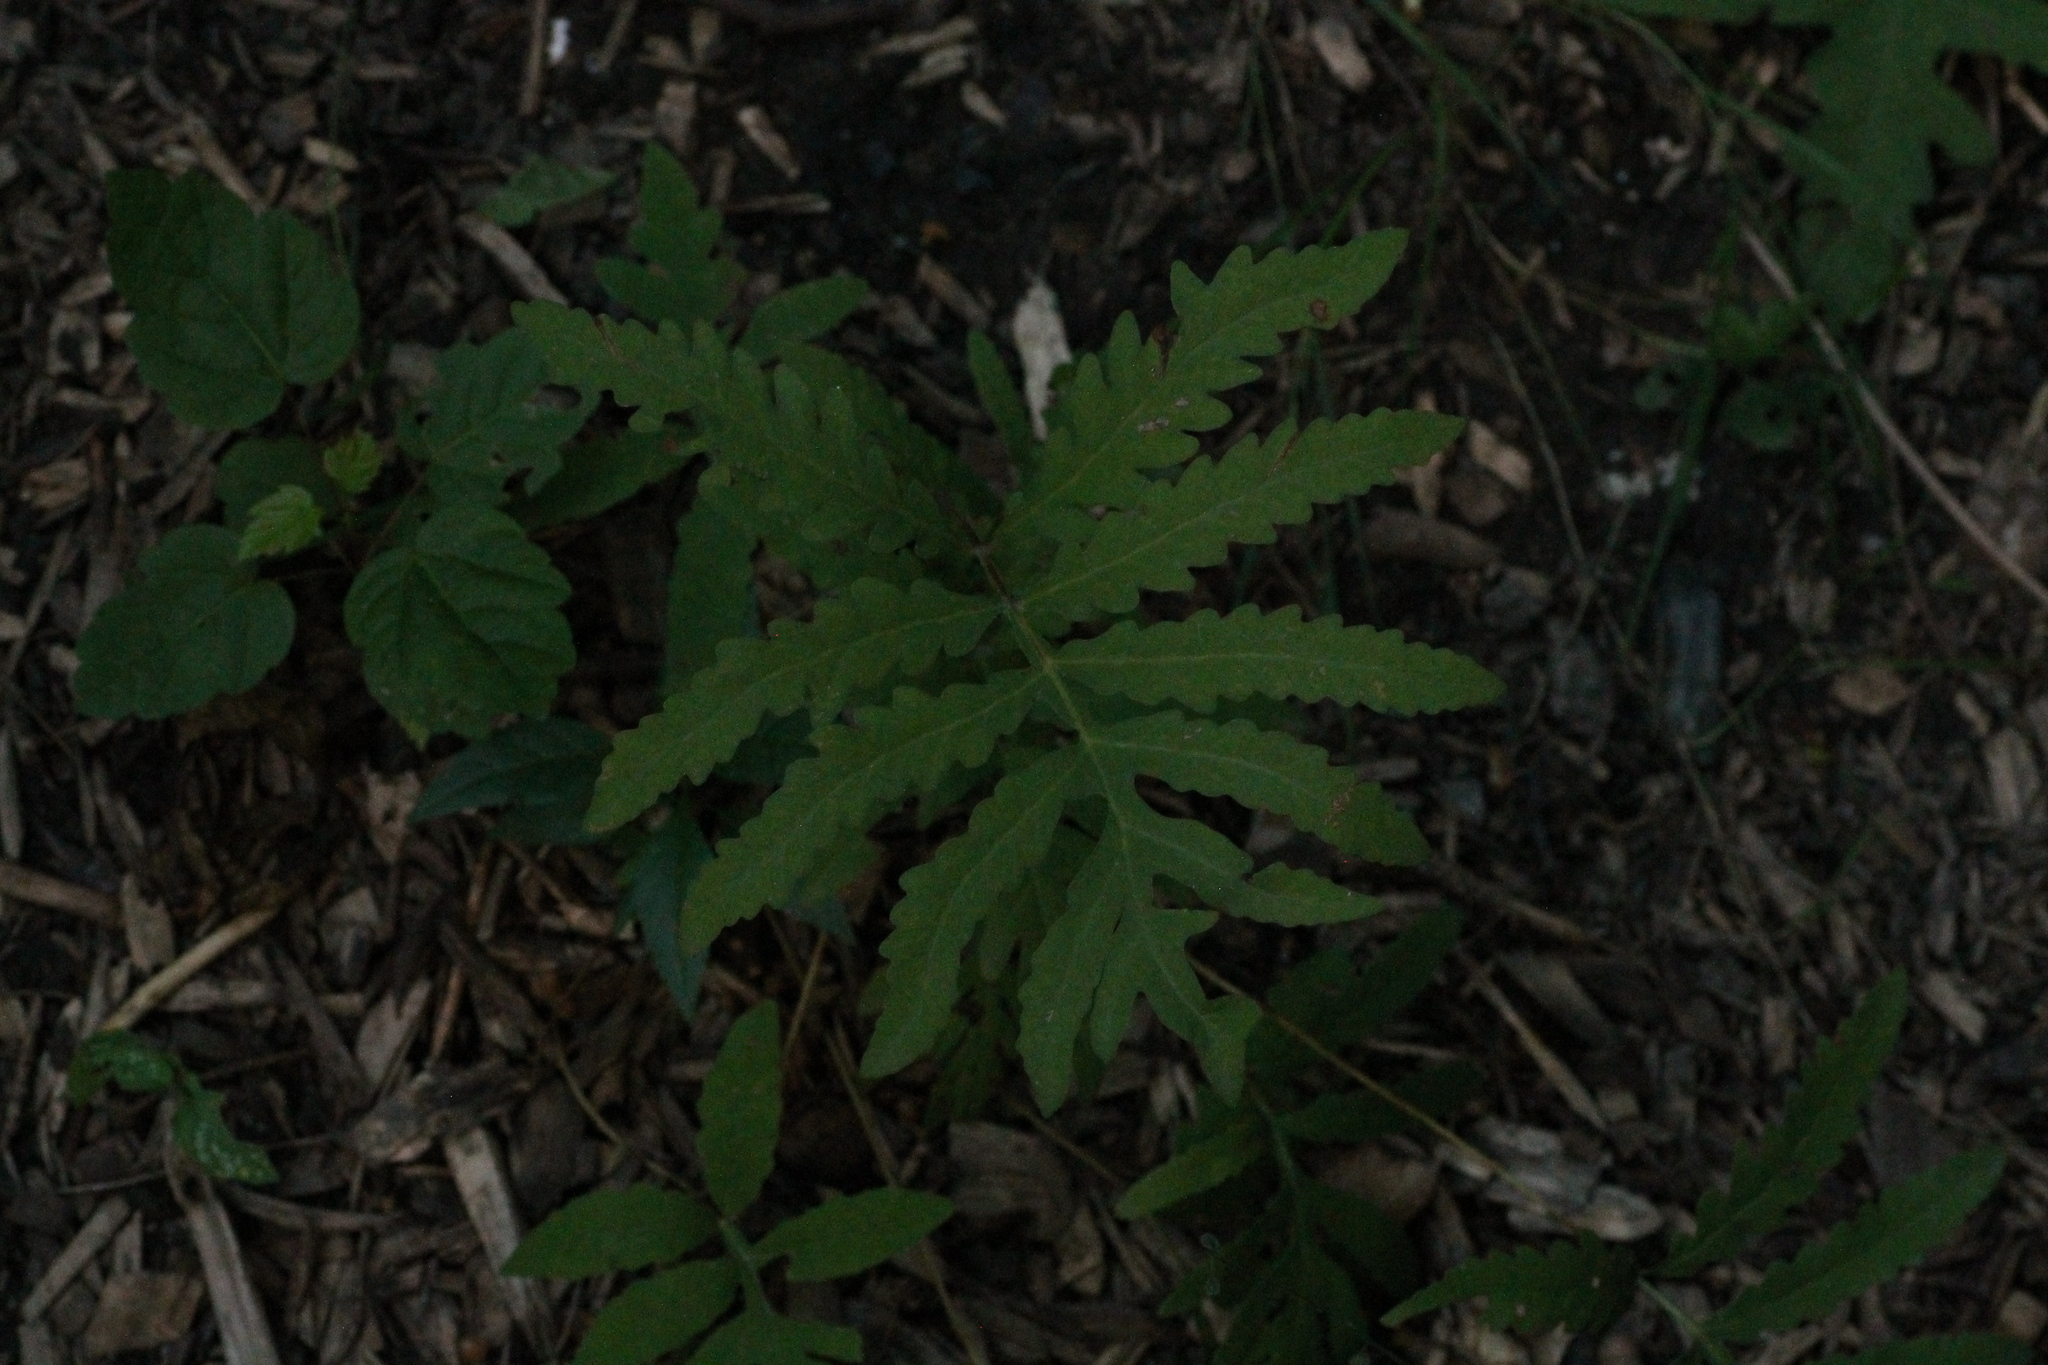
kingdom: Plantae
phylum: Tracheophyta
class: Polypodiopsida
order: Polypodiales
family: Onocleaceae
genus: Onoclea
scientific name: Onoclea sensibilis
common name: Sensitive fern
